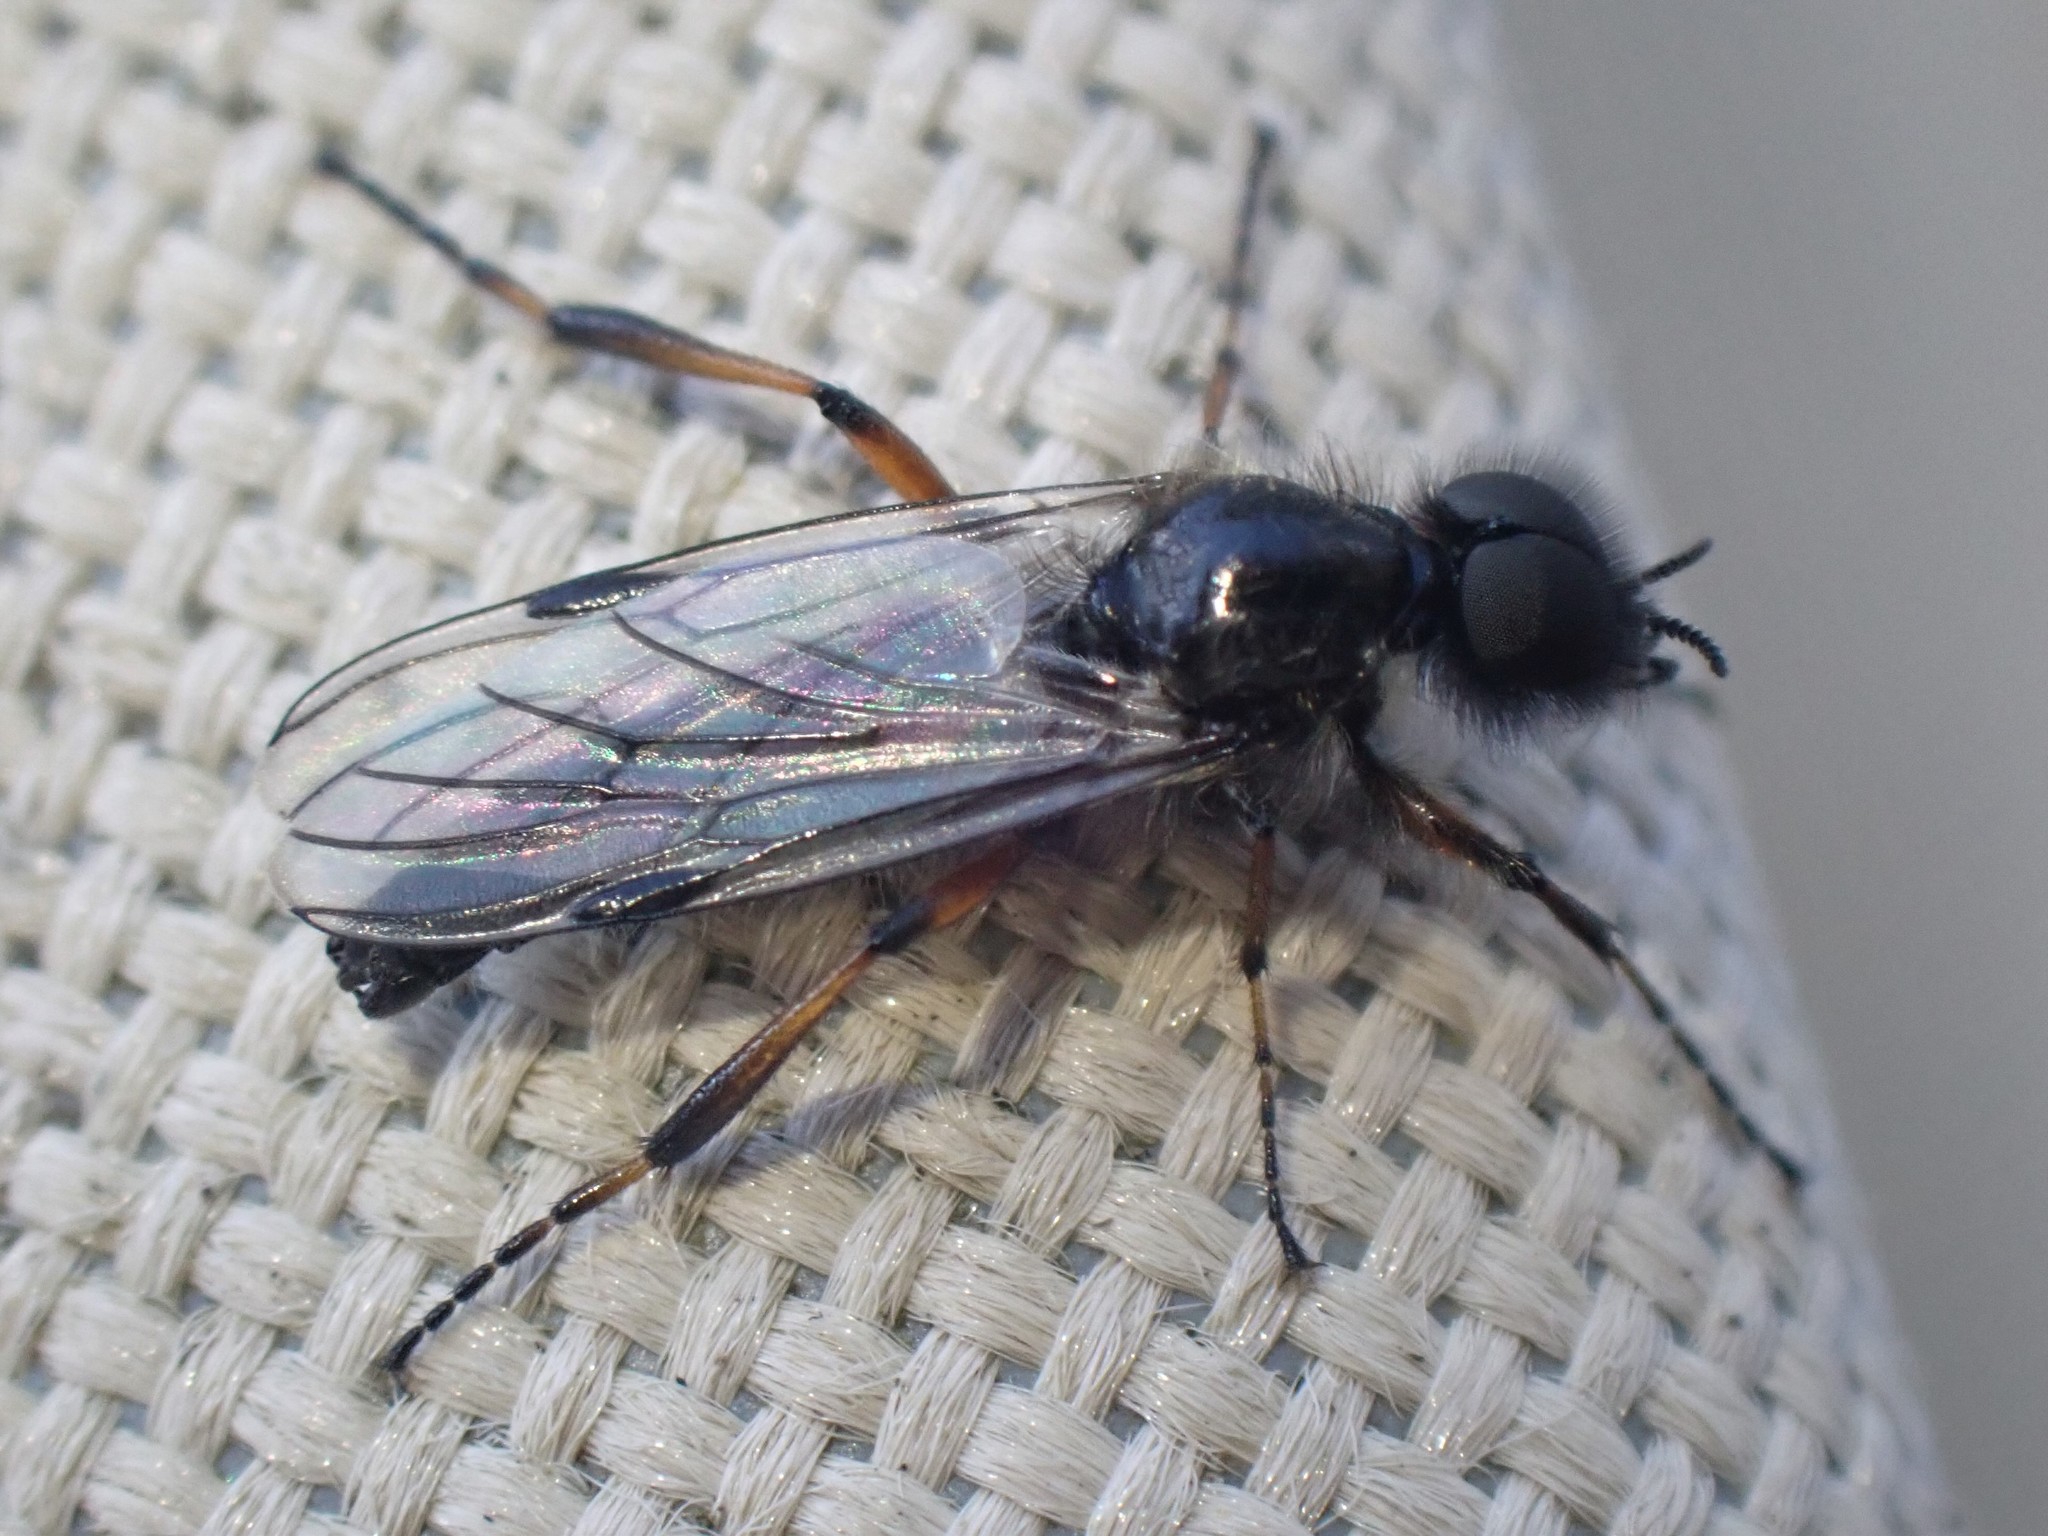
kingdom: Animalia
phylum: Arthropoda
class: Insecta
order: Diptera
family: Bibionidae
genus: Bibio
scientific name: Bibio
